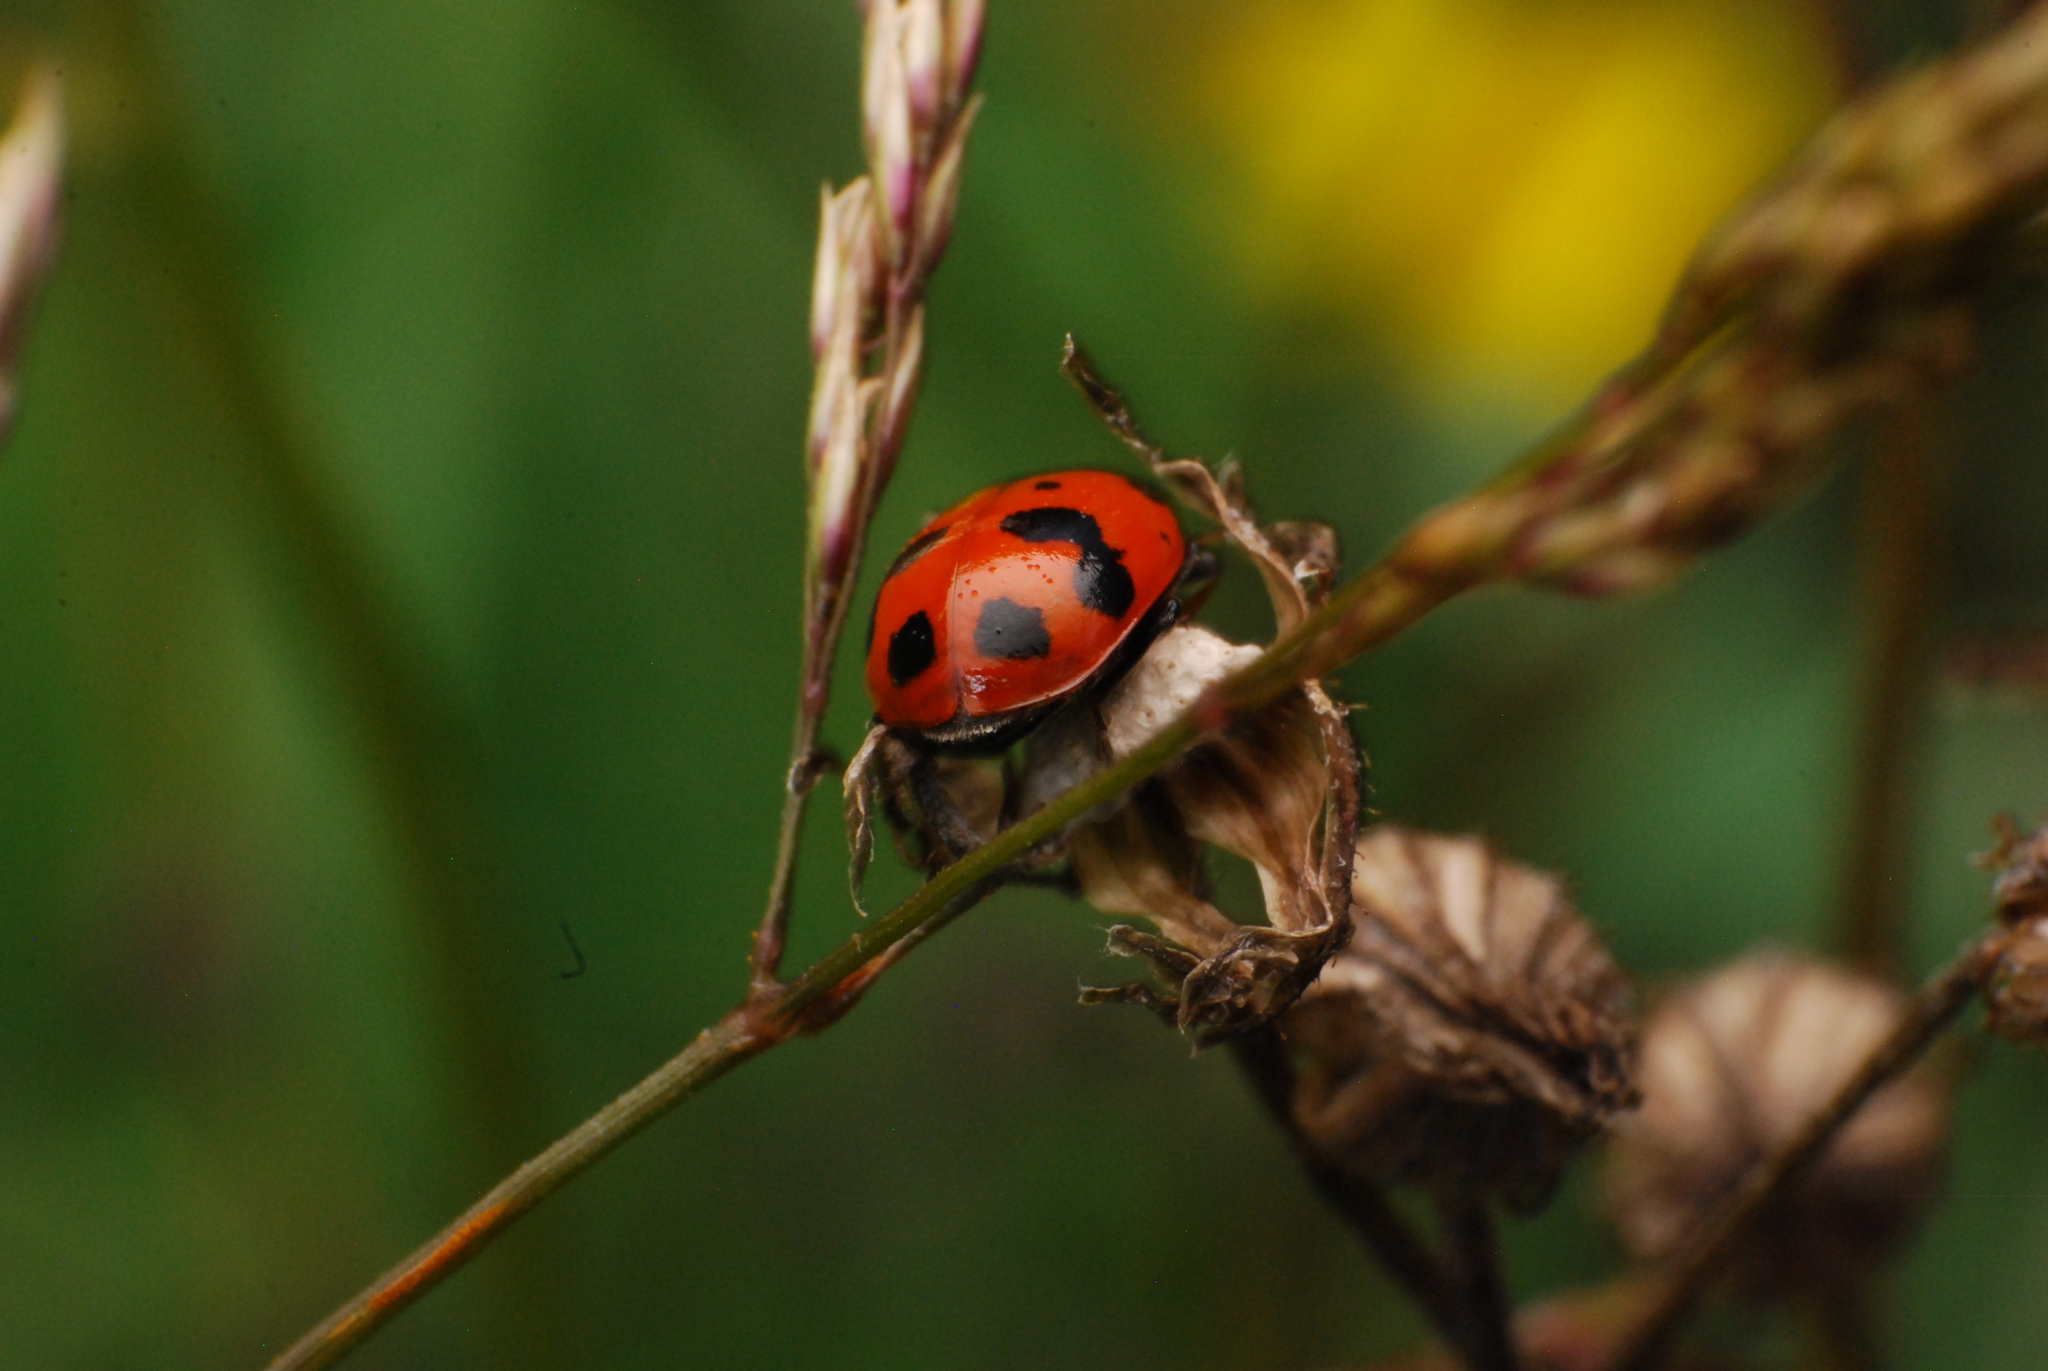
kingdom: Animalia
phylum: Arthropoda
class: Insecta
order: Coleoptera
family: Coccinellidae
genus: Hippodamia
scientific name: Hippodamia variegata
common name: Ladybird beetle
